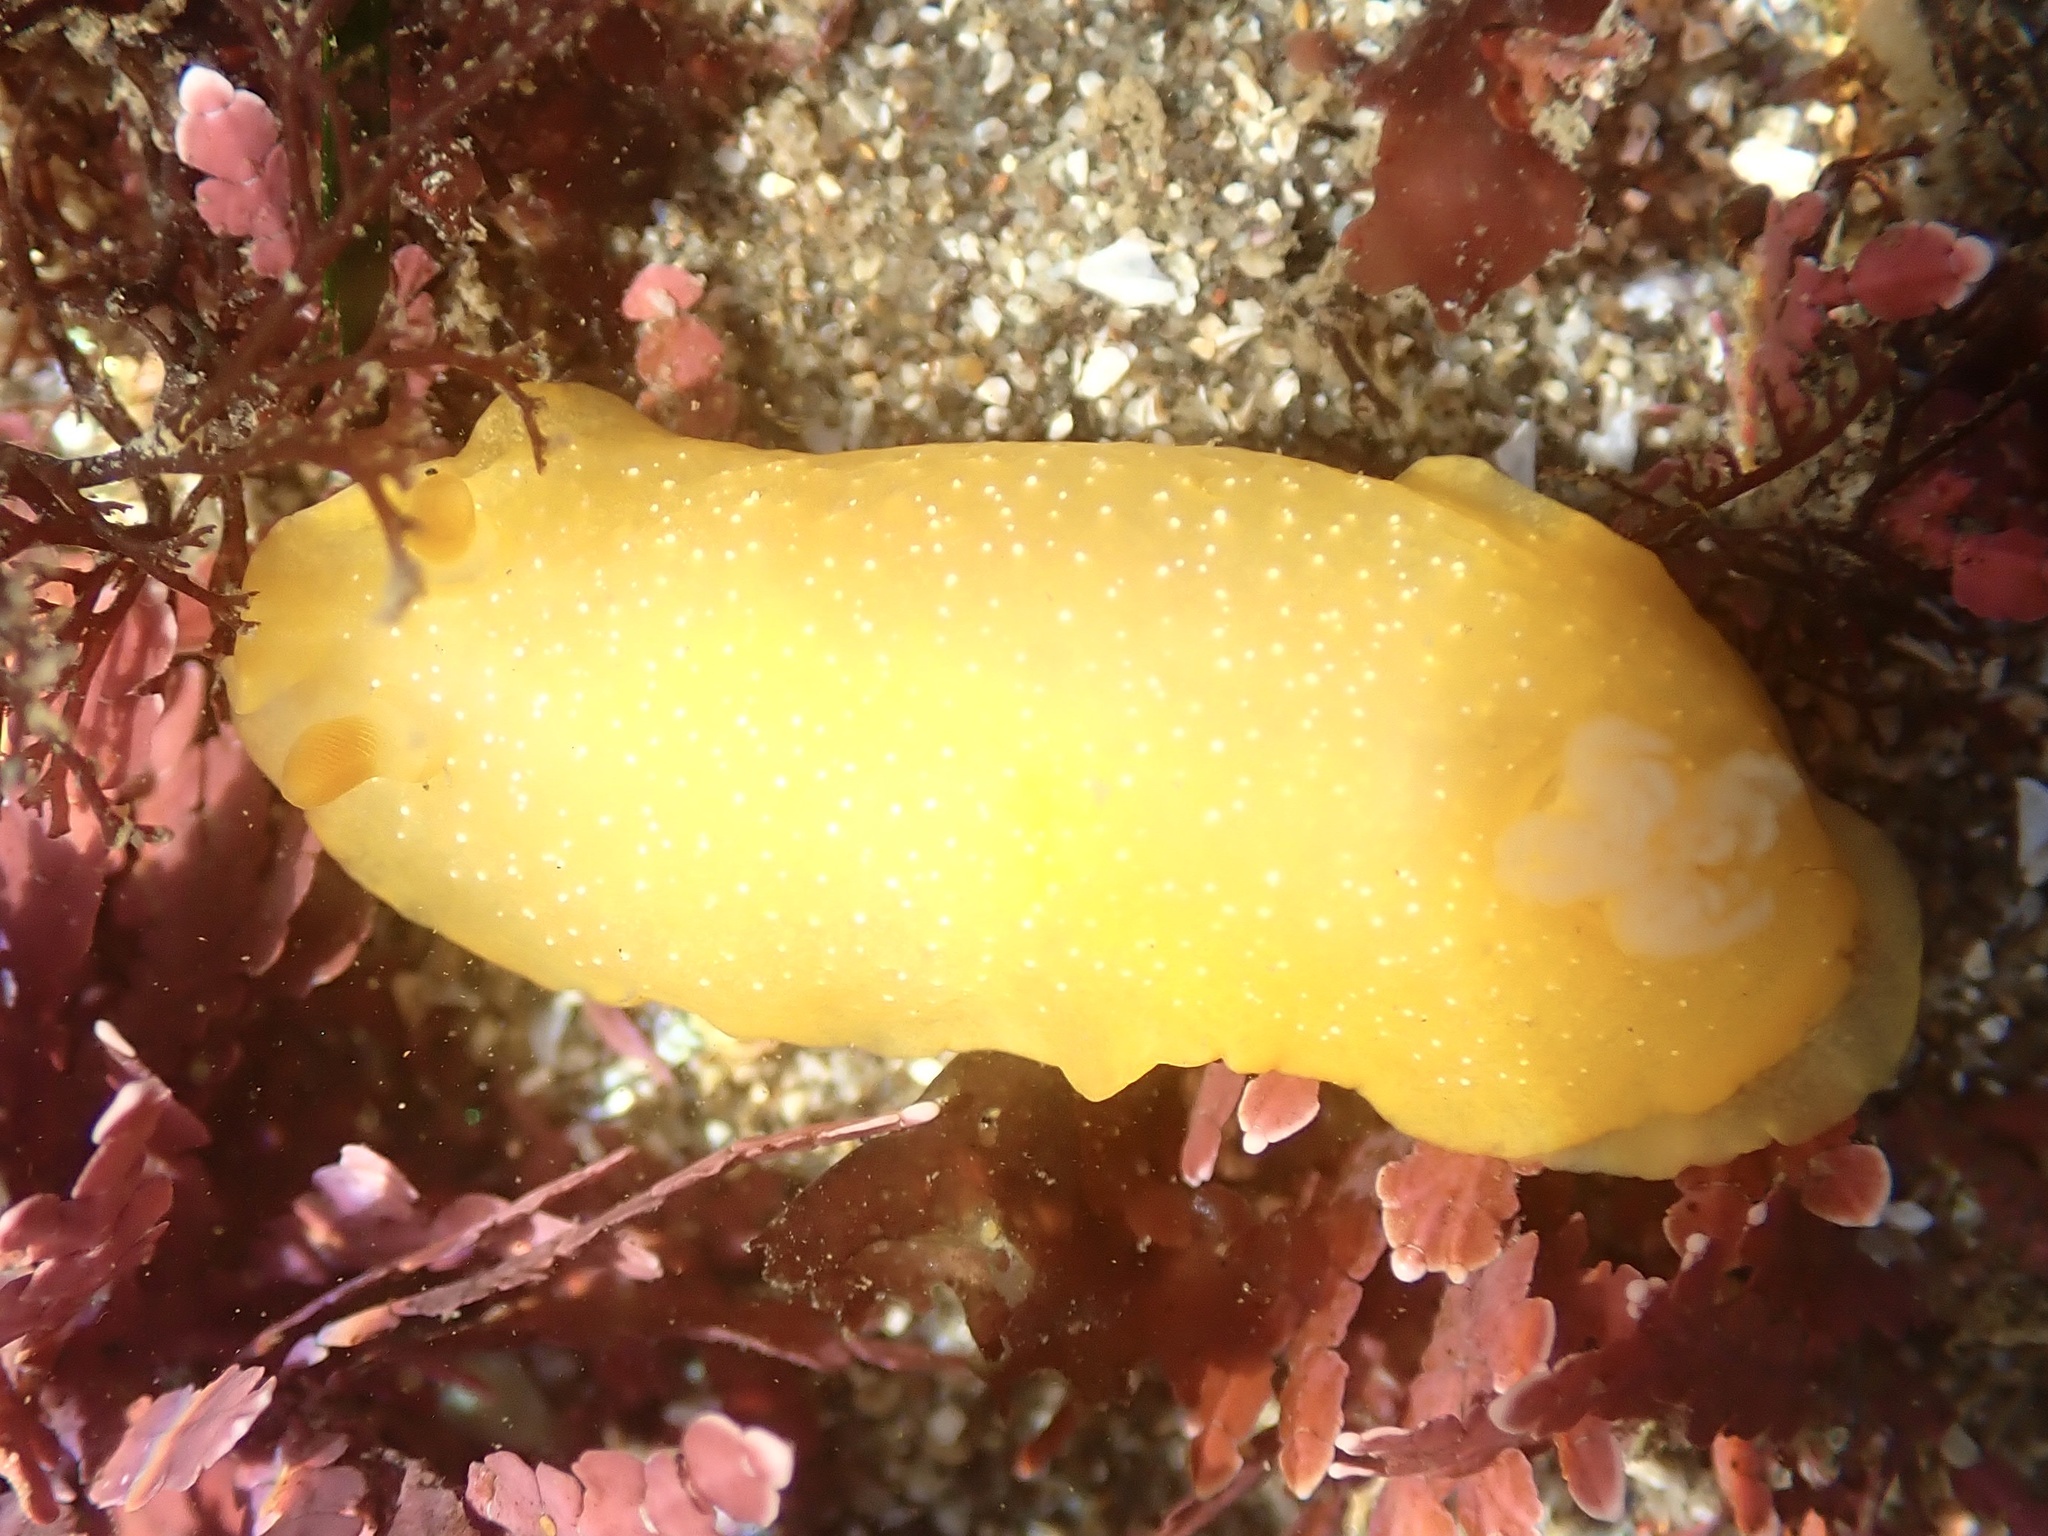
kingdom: Animalia
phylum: Mollusca
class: Gastropoda
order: Nudibranchia
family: Dendrodorididae
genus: Doriopsilla
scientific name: Doriopsilla fulva
